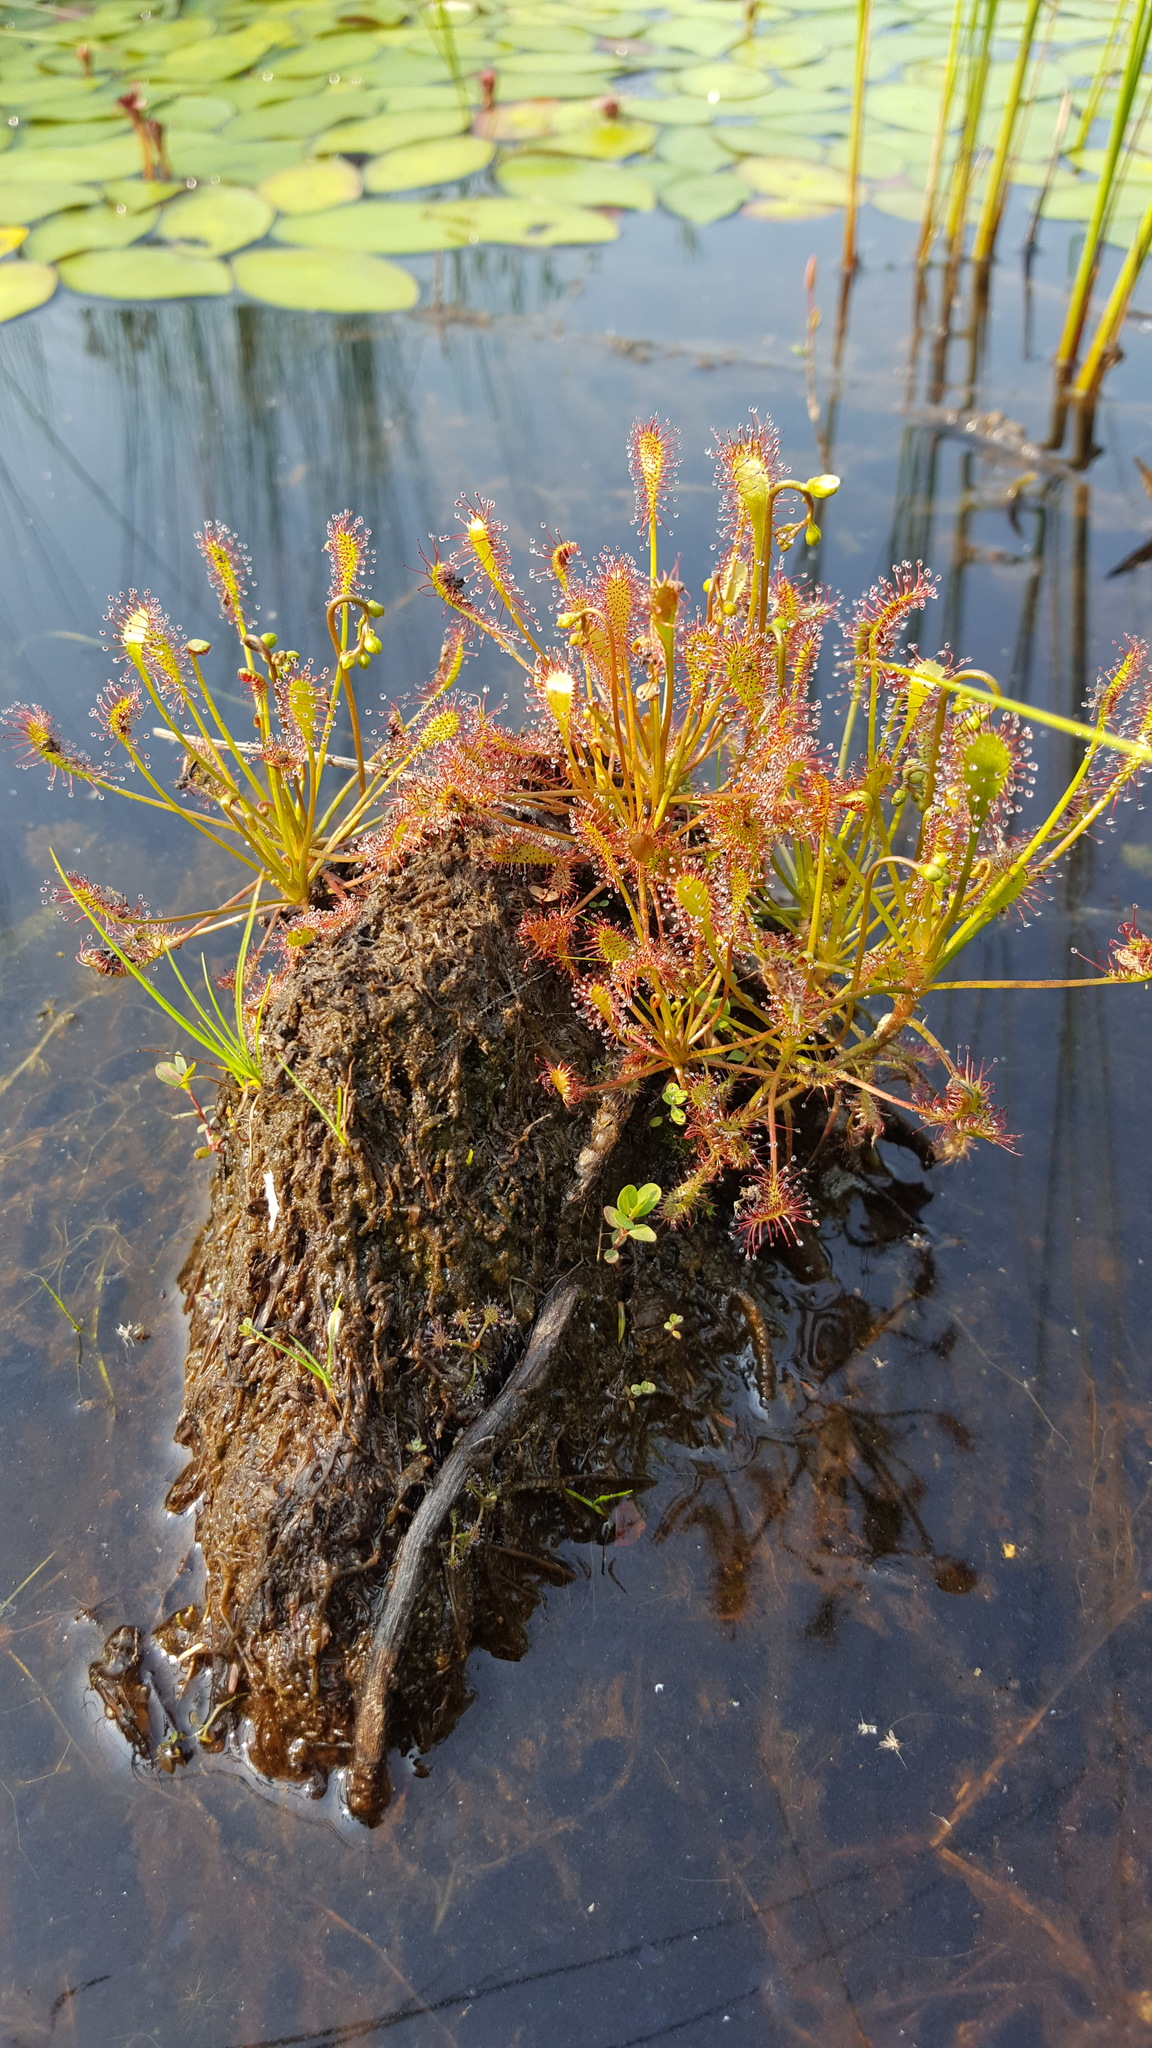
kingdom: Plantae
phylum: Tracheophyta
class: Magnoliopsida
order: Caryophyllales
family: Droseraceae
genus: Drosera
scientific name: Drosera intermedia
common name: Oblong-leaved sundew
